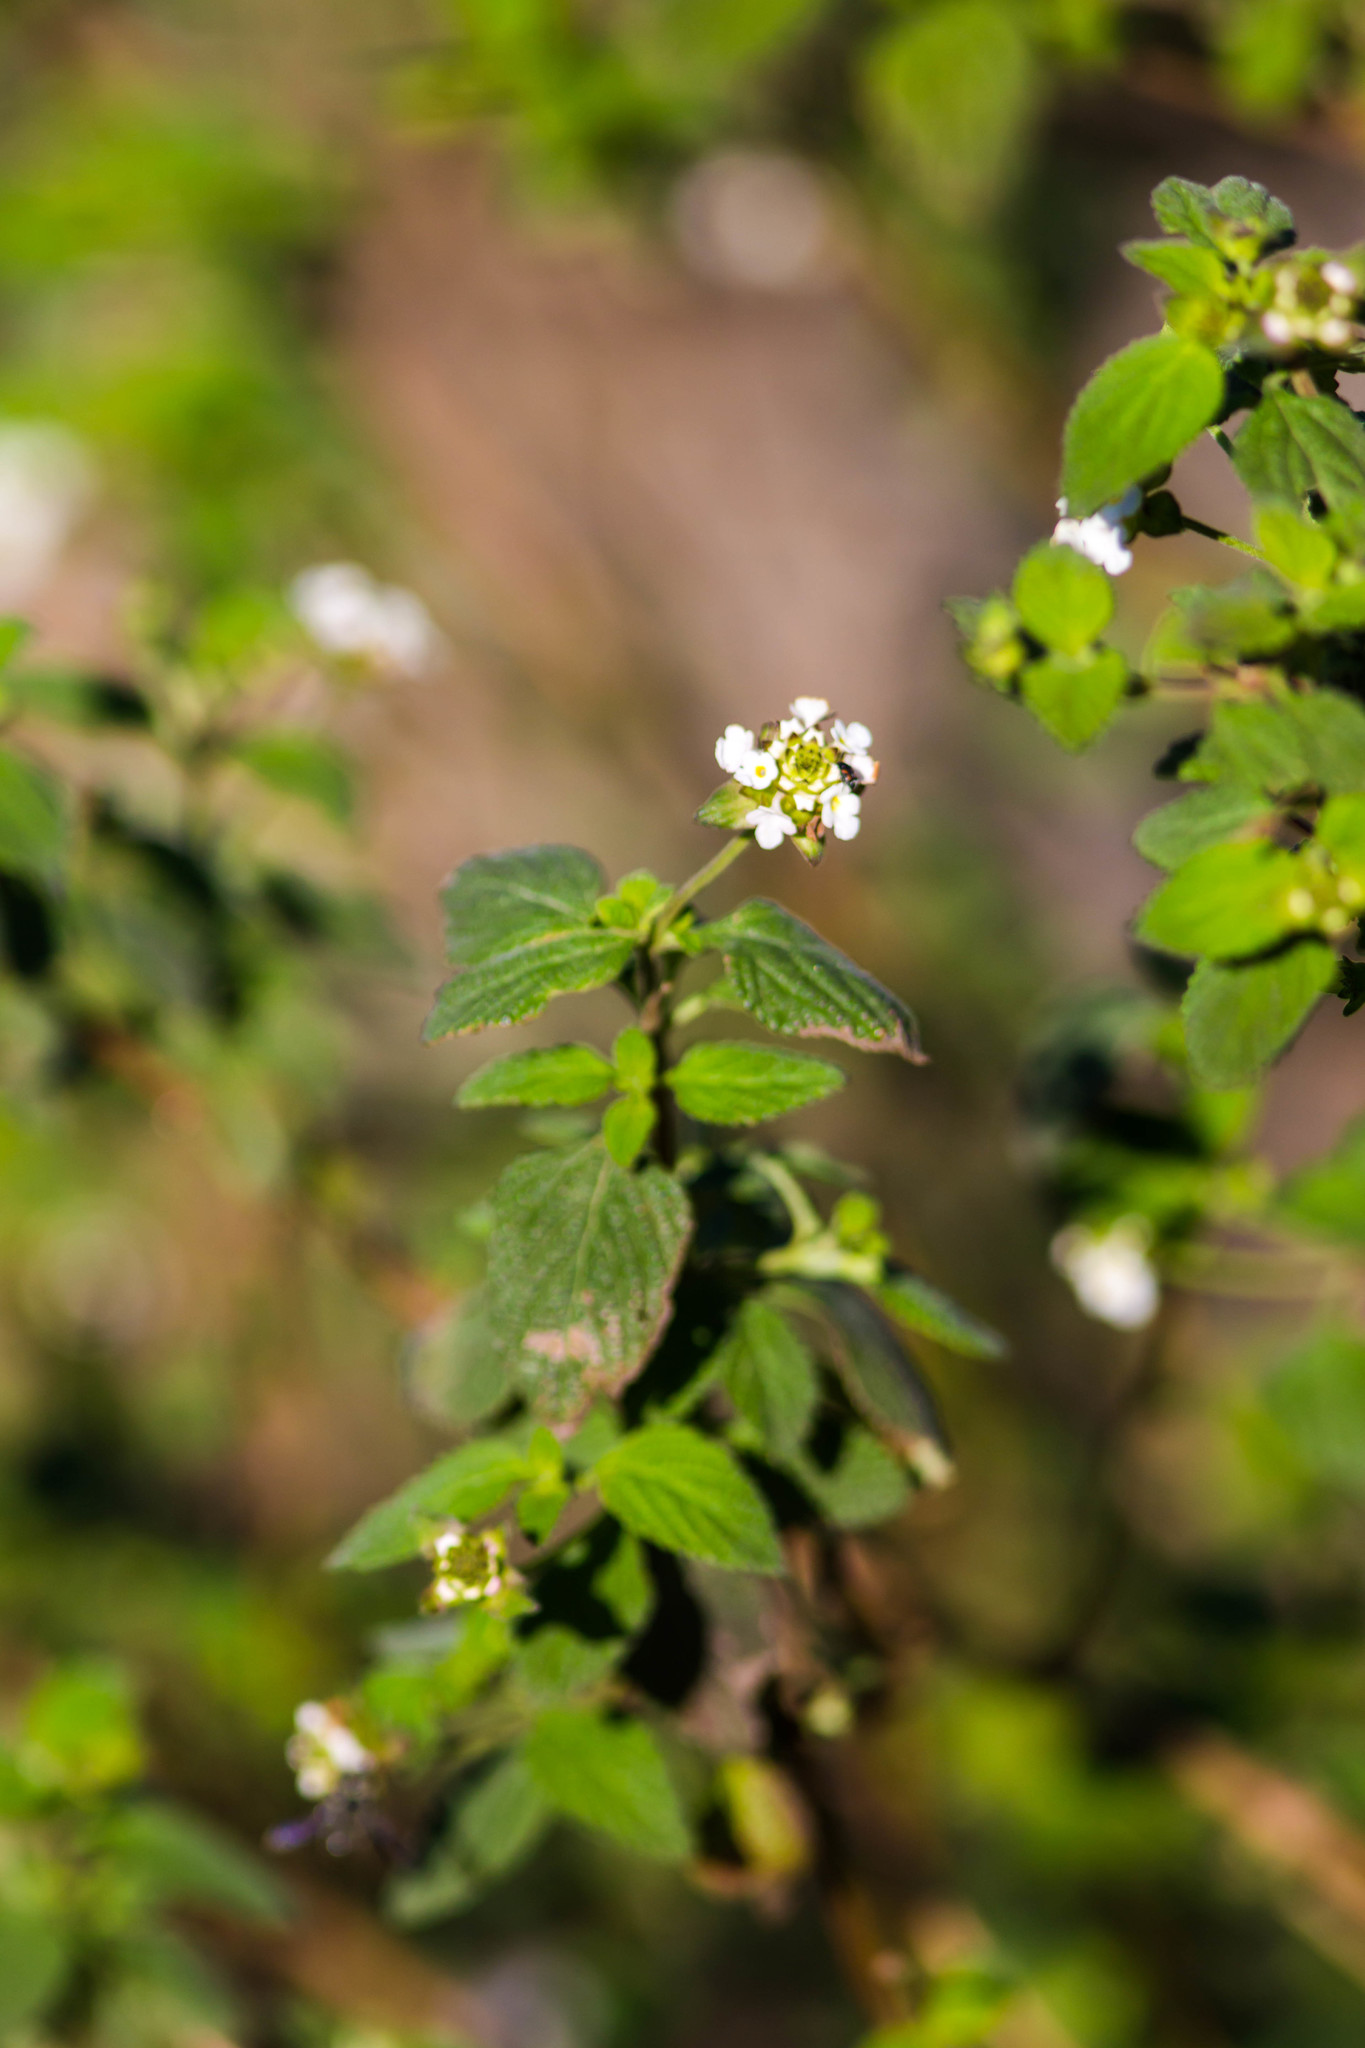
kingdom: Plantae
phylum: Tracheophyta
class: Magnoliopsida
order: Lamiales
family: Verbenaceae
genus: Lantana
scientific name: Lantana velutina
